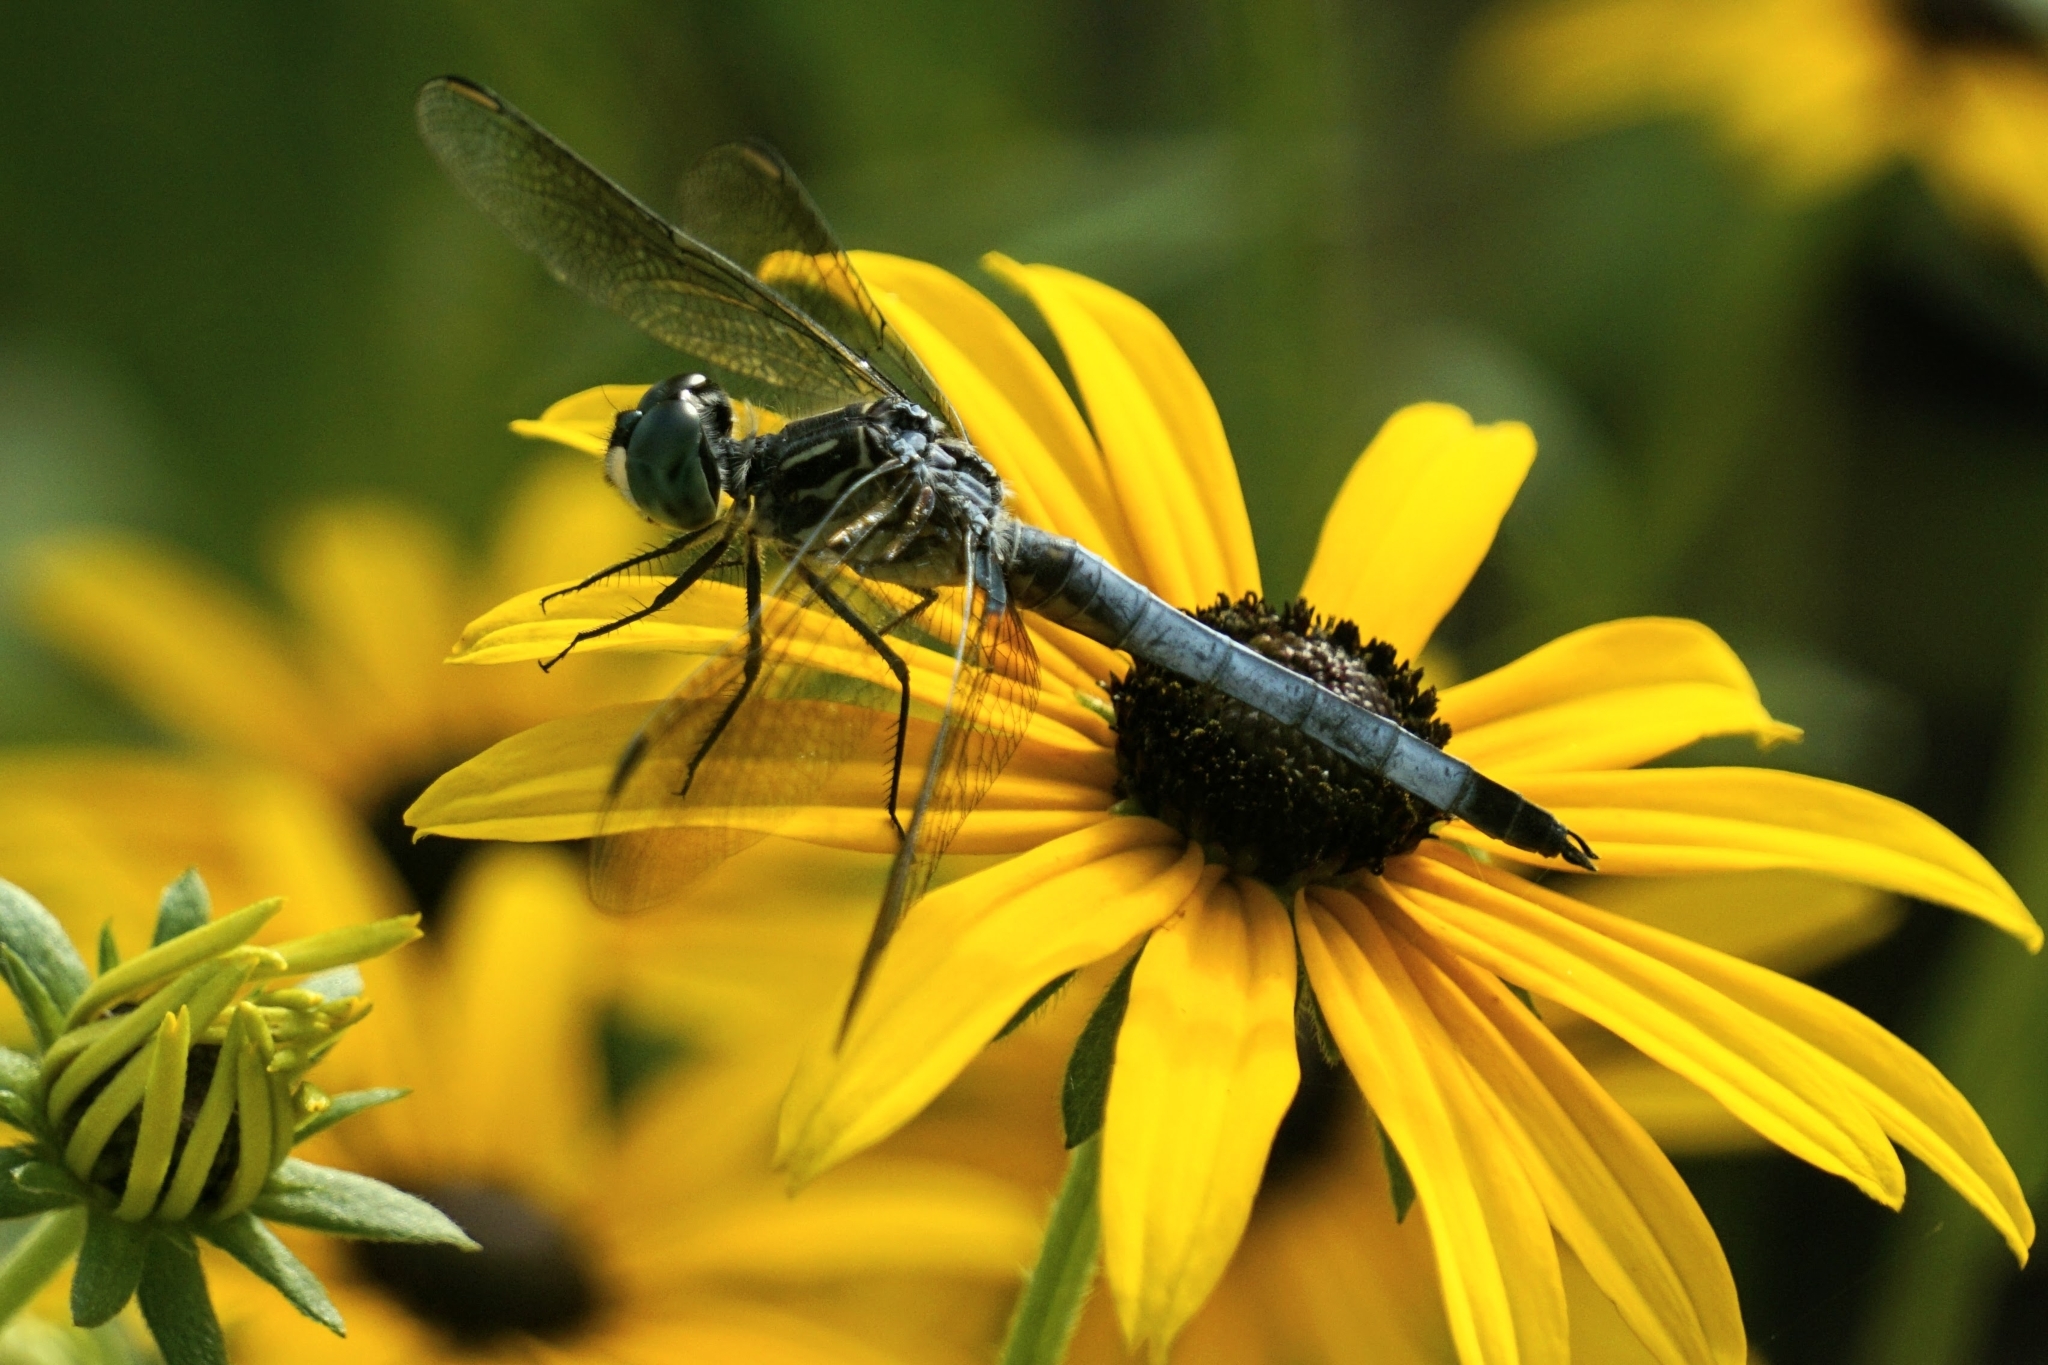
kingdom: Animalia
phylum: Arthropoda
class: Insecta
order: Odonata
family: Libellulidae
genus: Pachydiplax
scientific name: Pachydiplax longipennis
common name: Blue dasher
